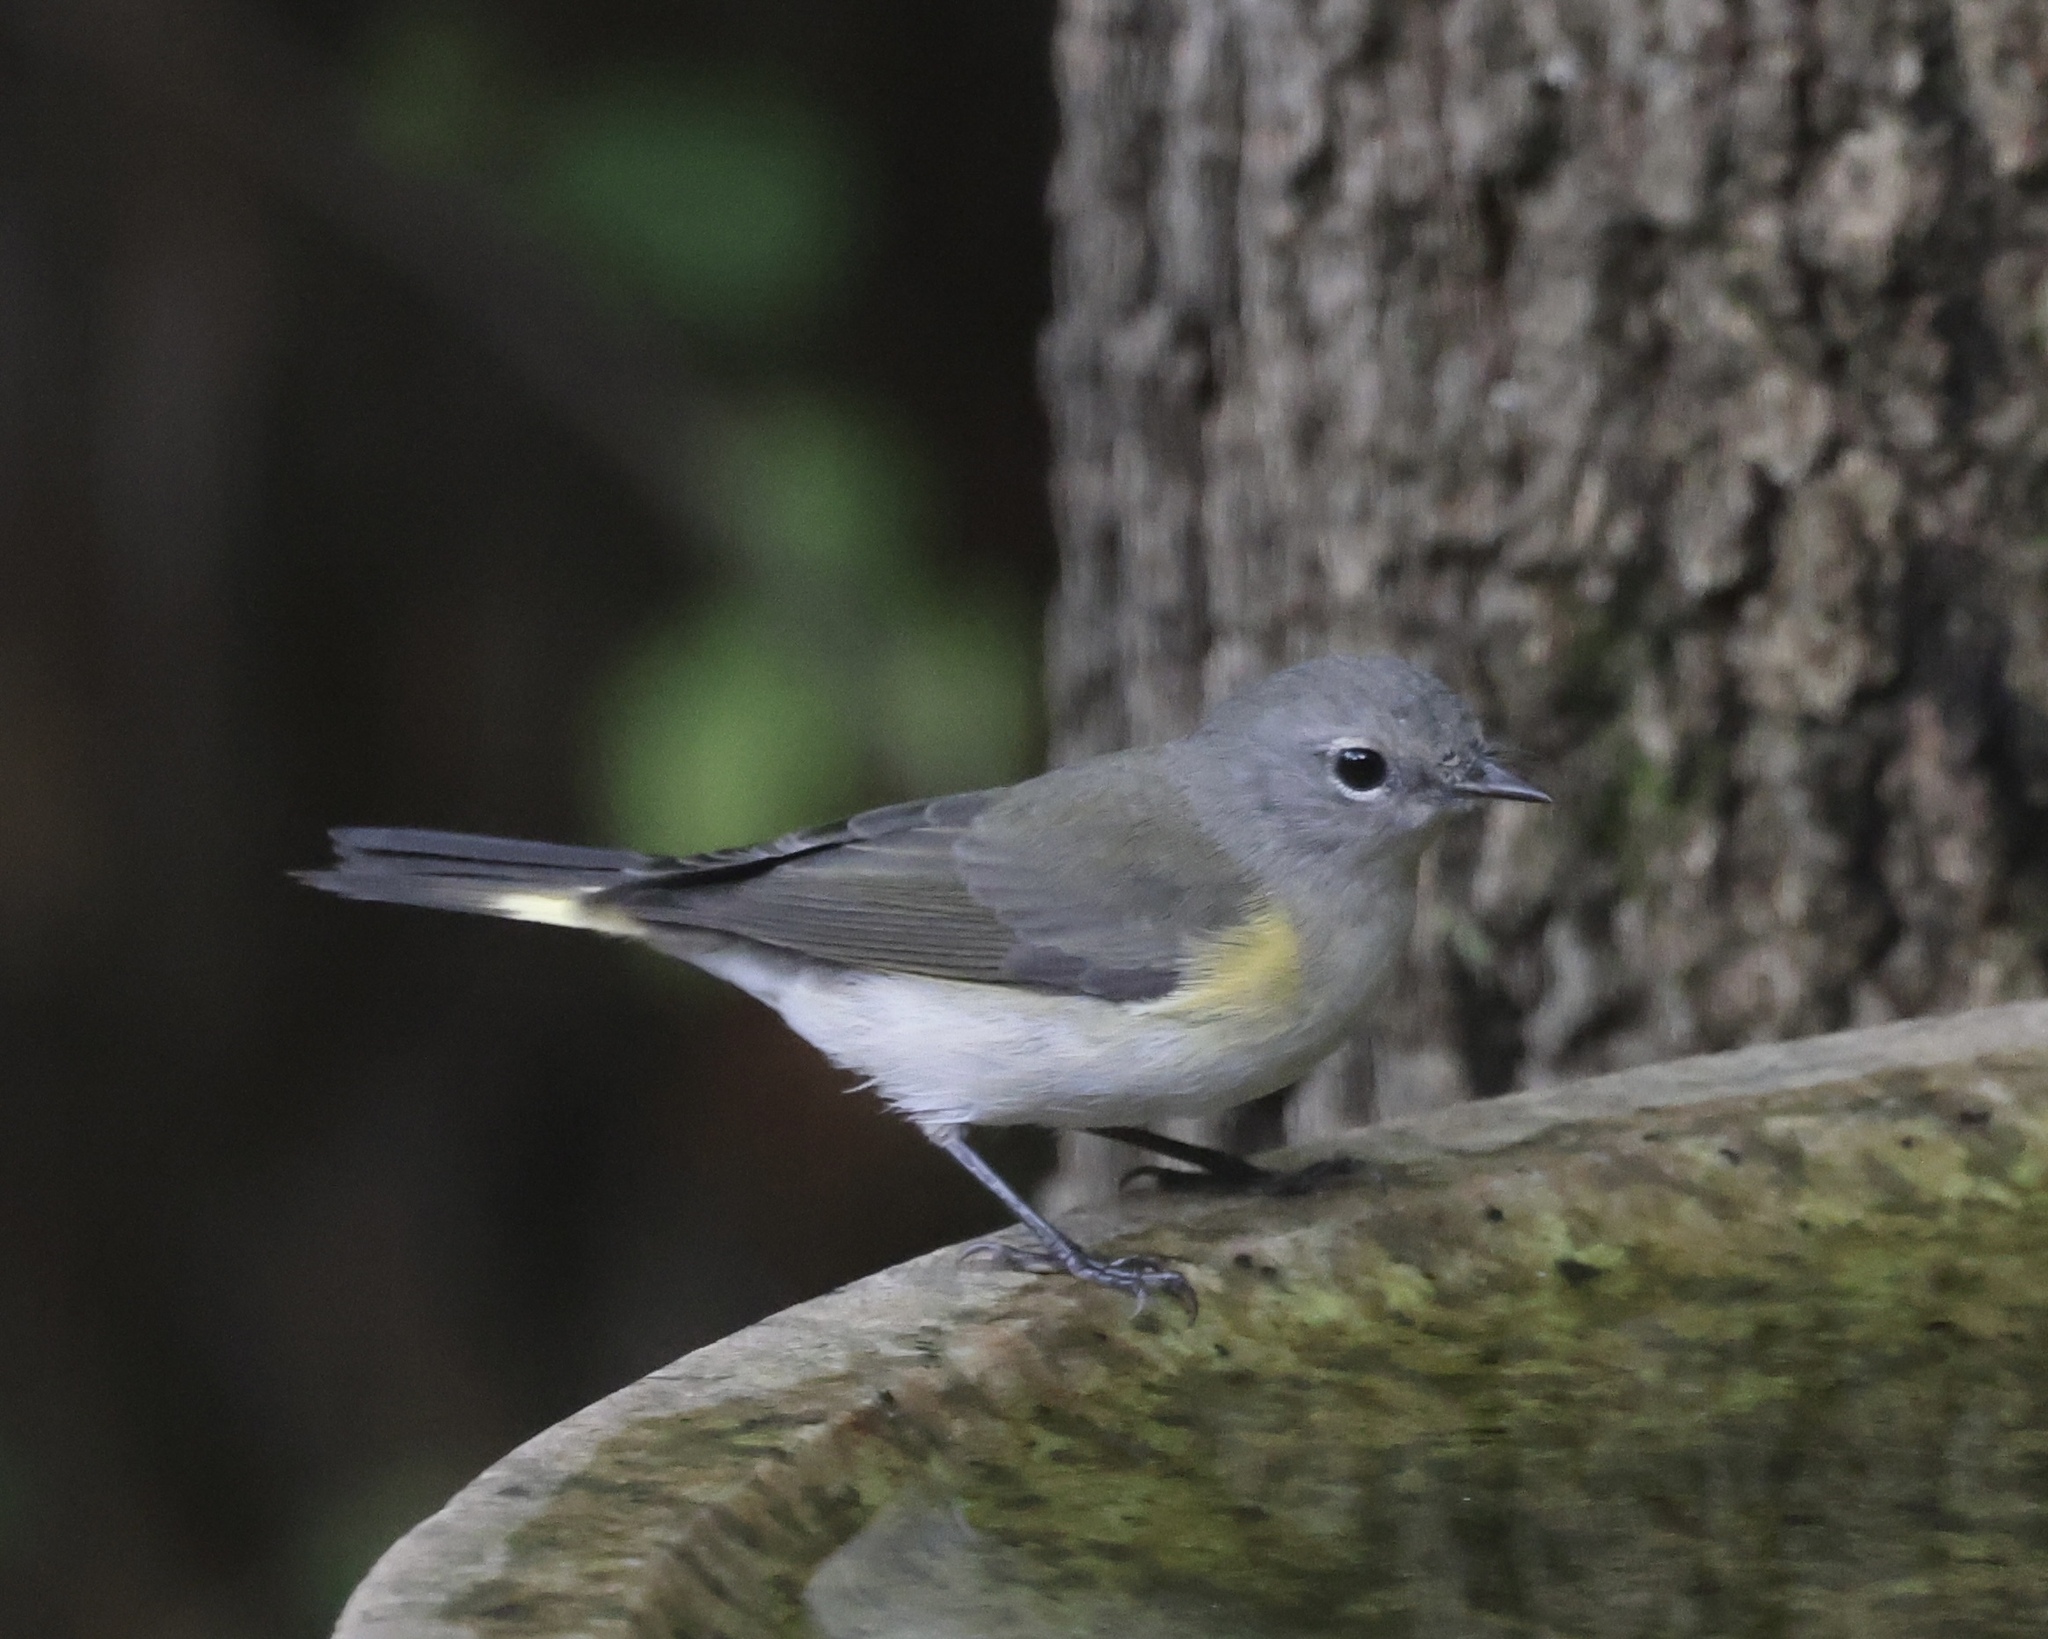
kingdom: Animalia
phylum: Chordata
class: Aves
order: Passeriformes
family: Parulidae
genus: Setophaga
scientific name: Setophaga ruticilla
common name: American redstart
